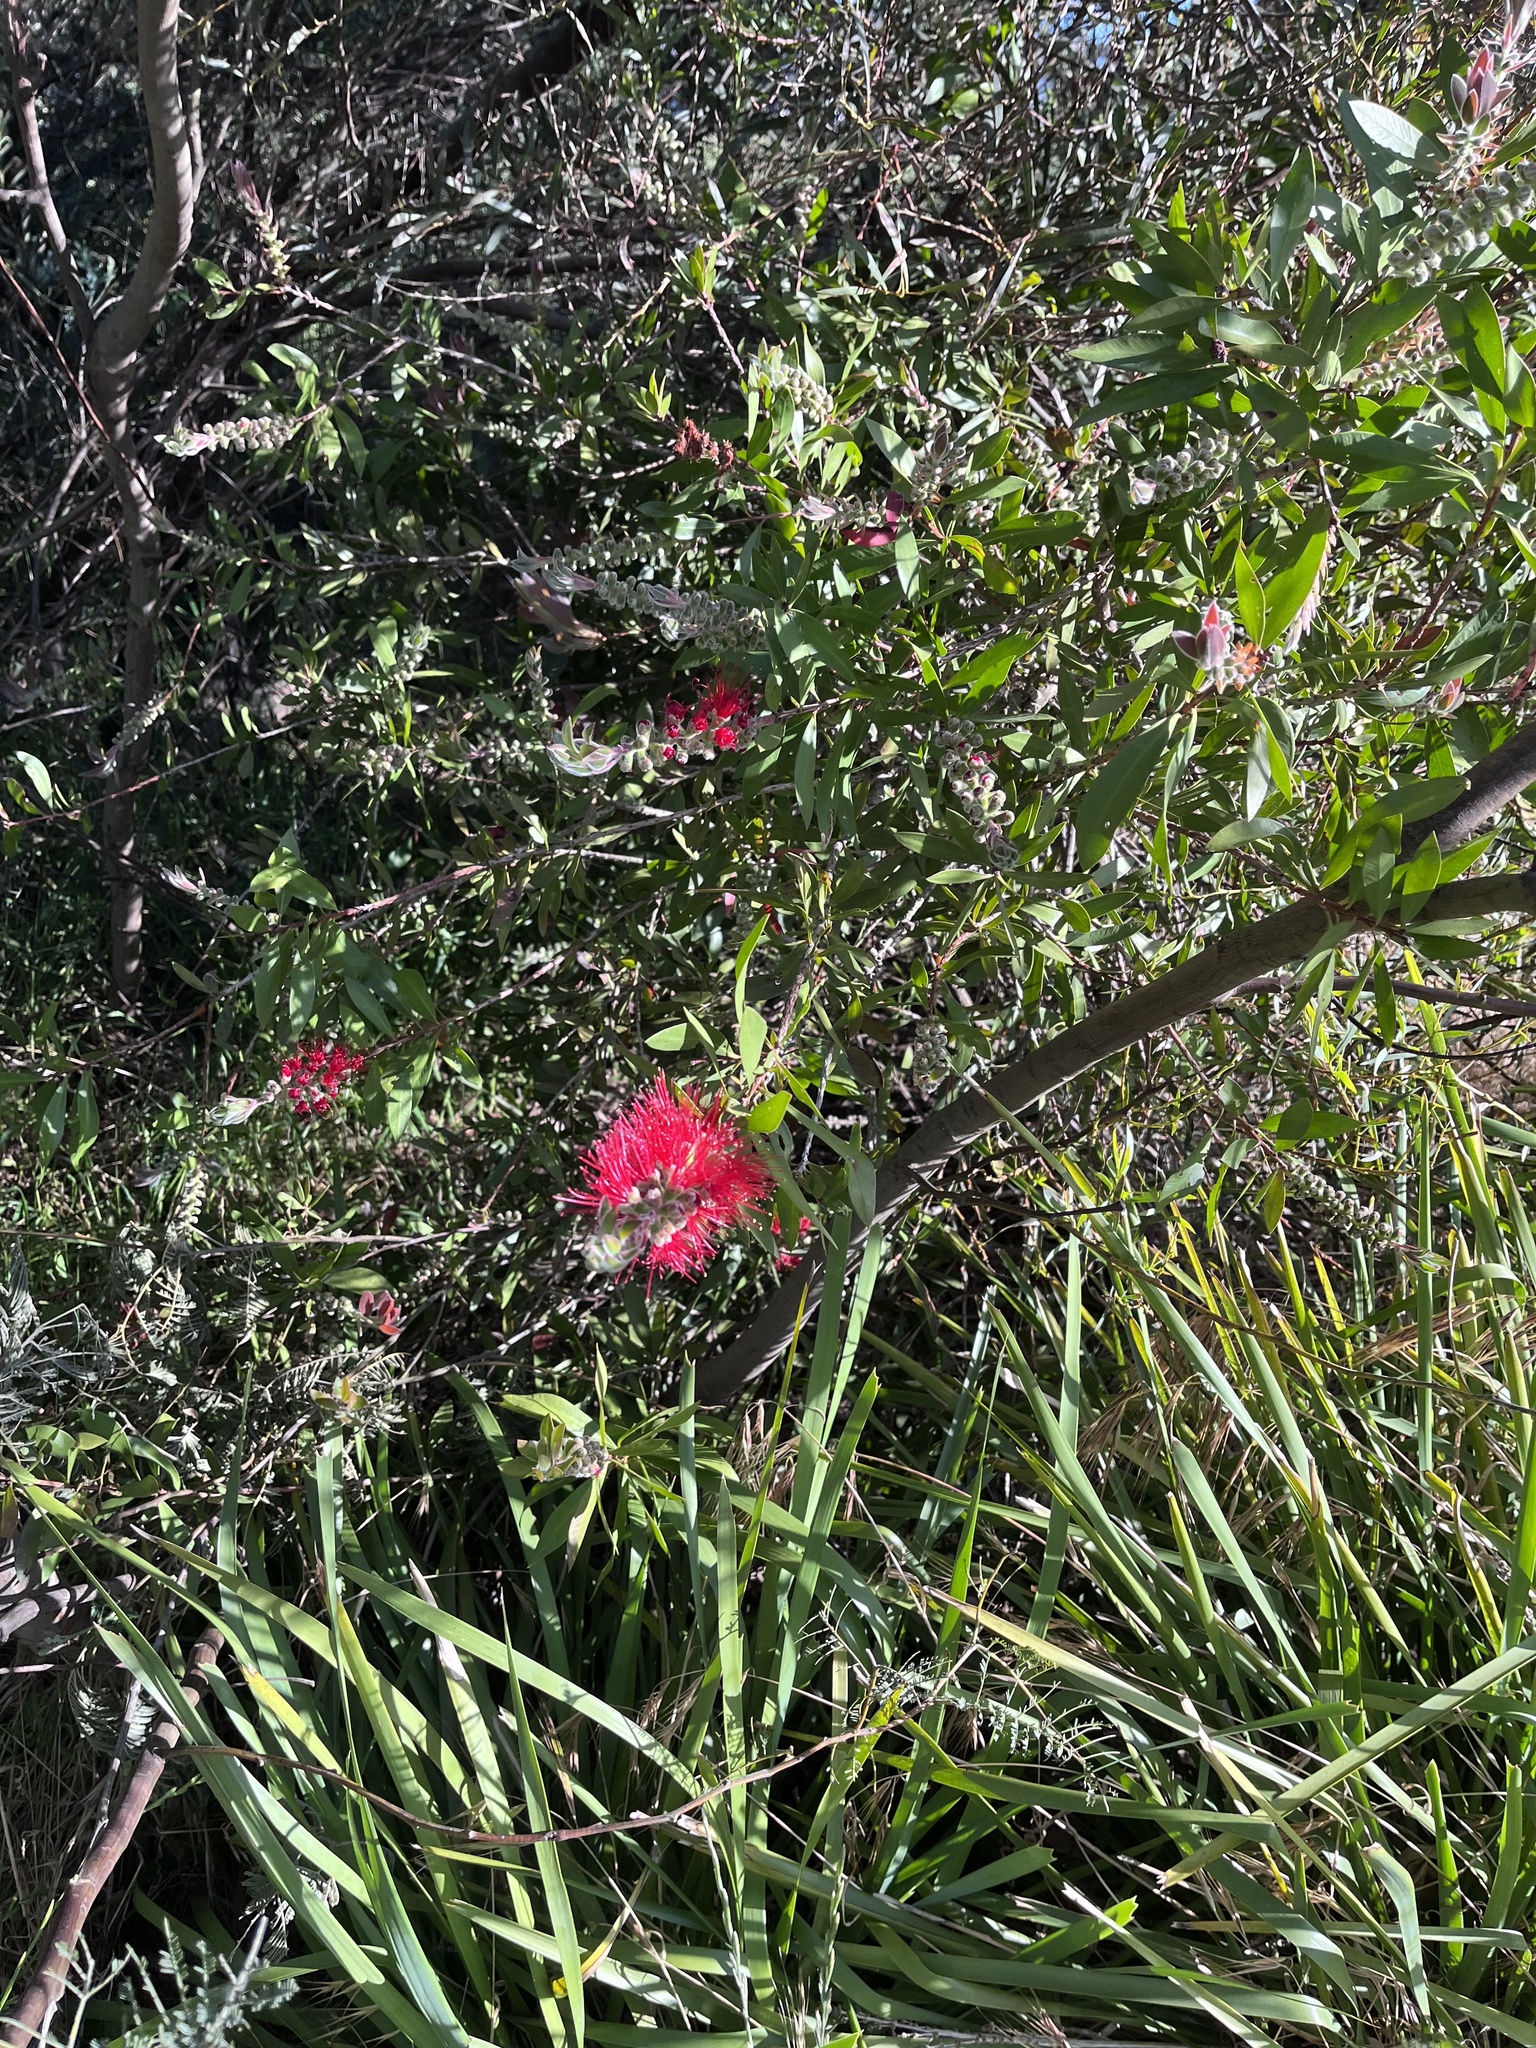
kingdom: Plantae
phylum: Tracheophyta
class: Magnoliopsida
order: Myrtales
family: Myrtaceae
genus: Melaleuca
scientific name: Melaleuca
